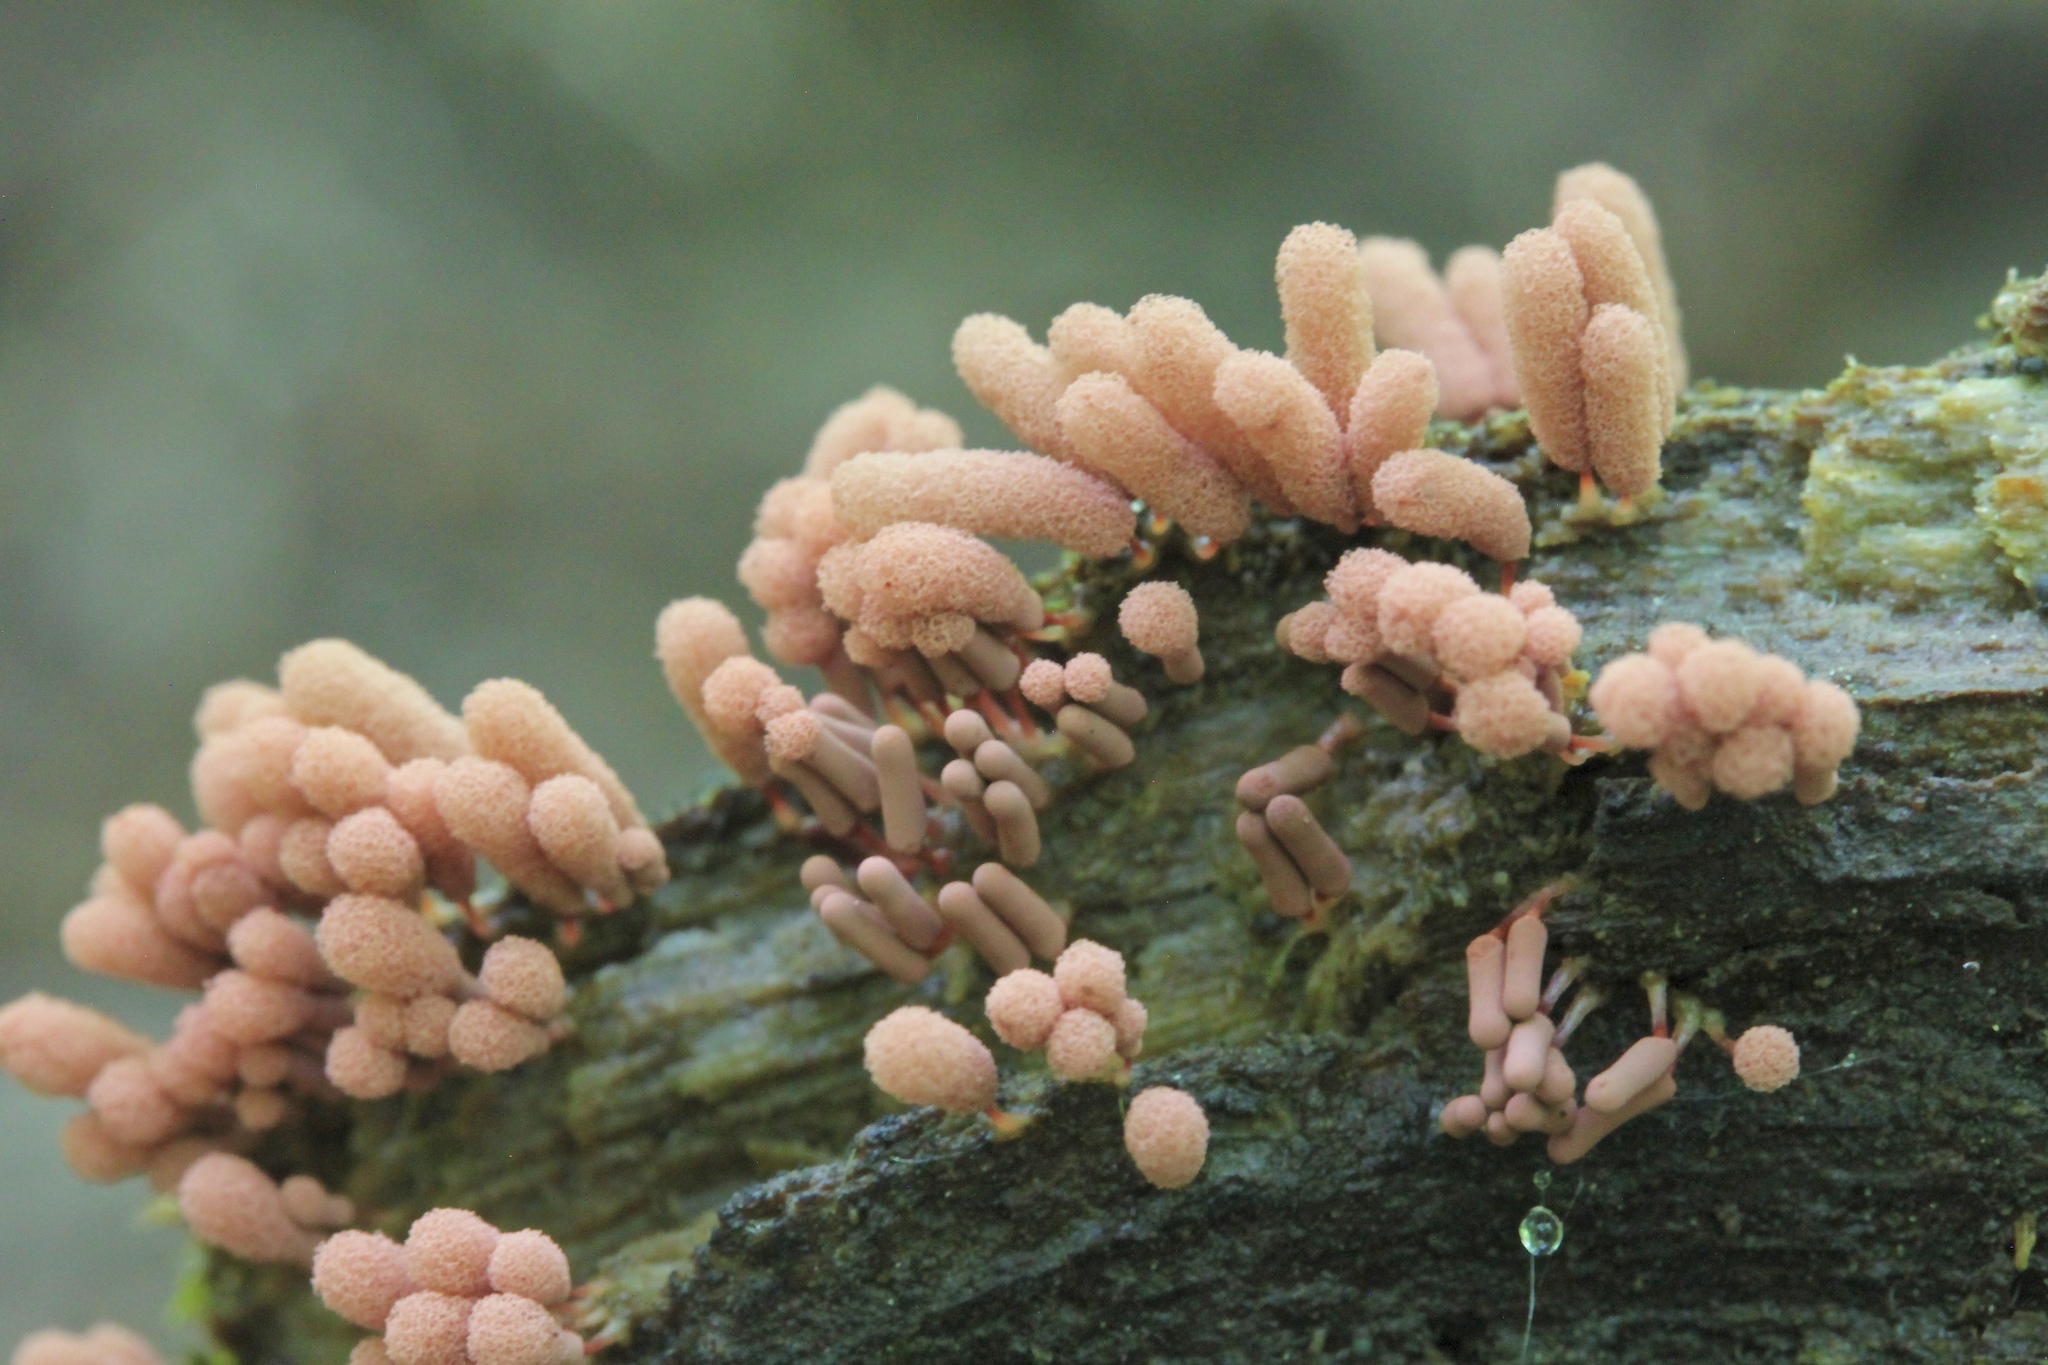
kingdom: Protozoa
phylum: Mycetozoa
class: Myxomycetes
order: Trichiales
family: Arcyriaceae
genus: Arcyria
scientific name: Arcyria denudata
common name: Carnival candy slime mold
